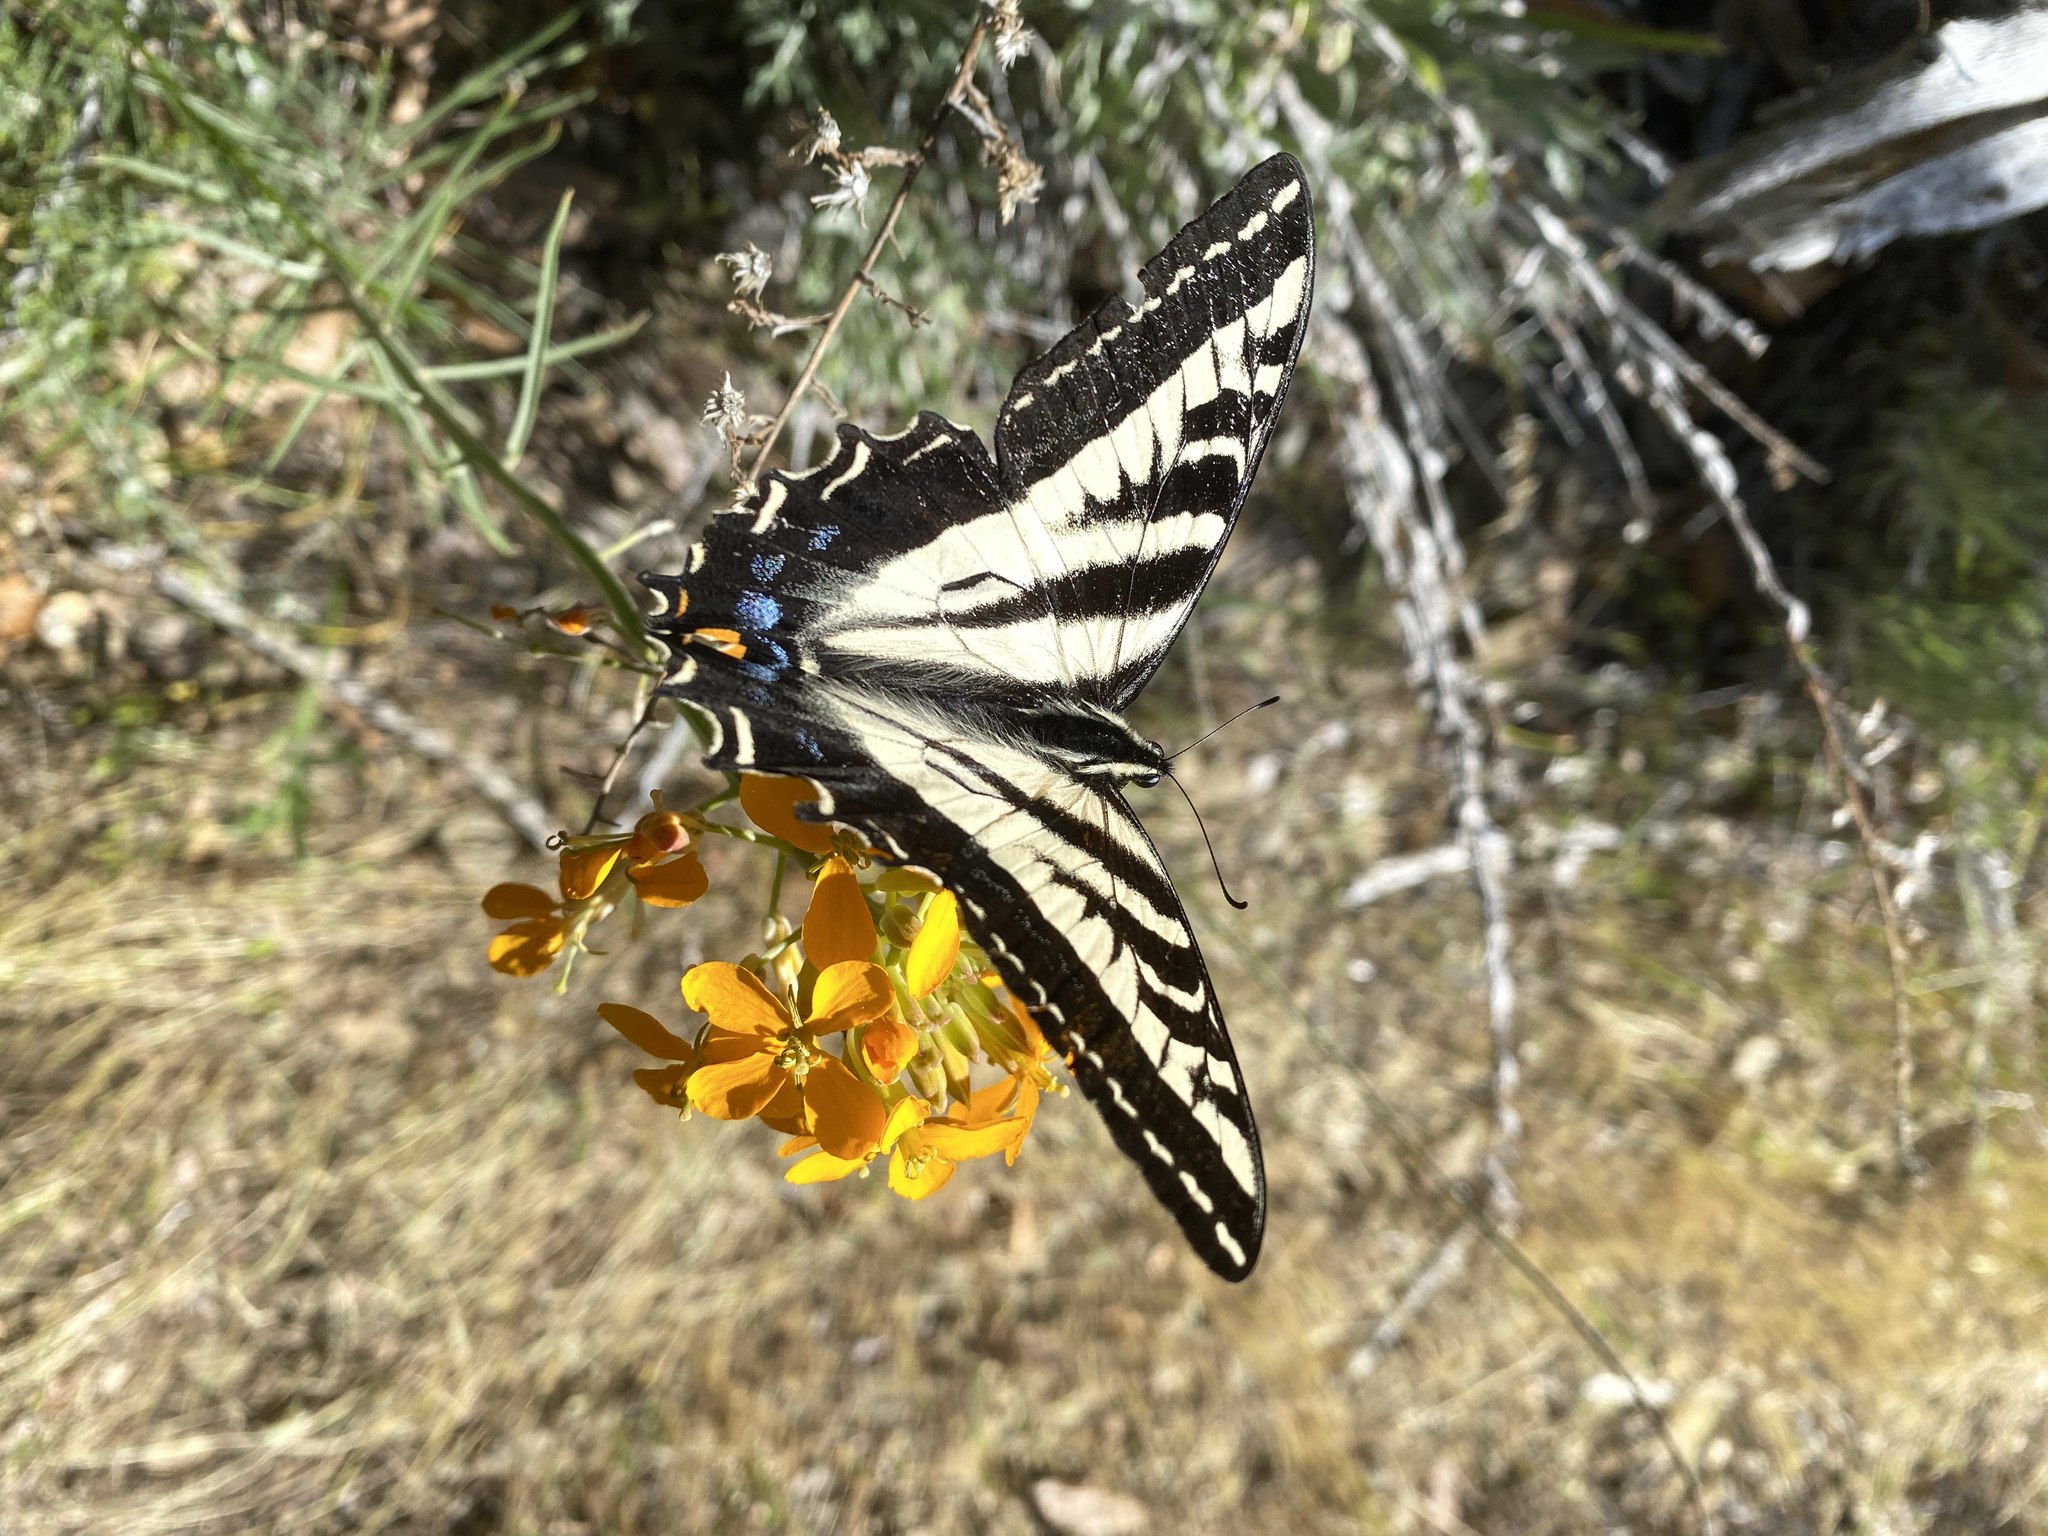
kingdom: Animalia
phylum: Arthropoda
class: Insecta
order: Lepidoptera
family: Papilionidae
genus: Papilio
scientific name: Papilio eurymedon
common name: Pale tiger swallowtail
